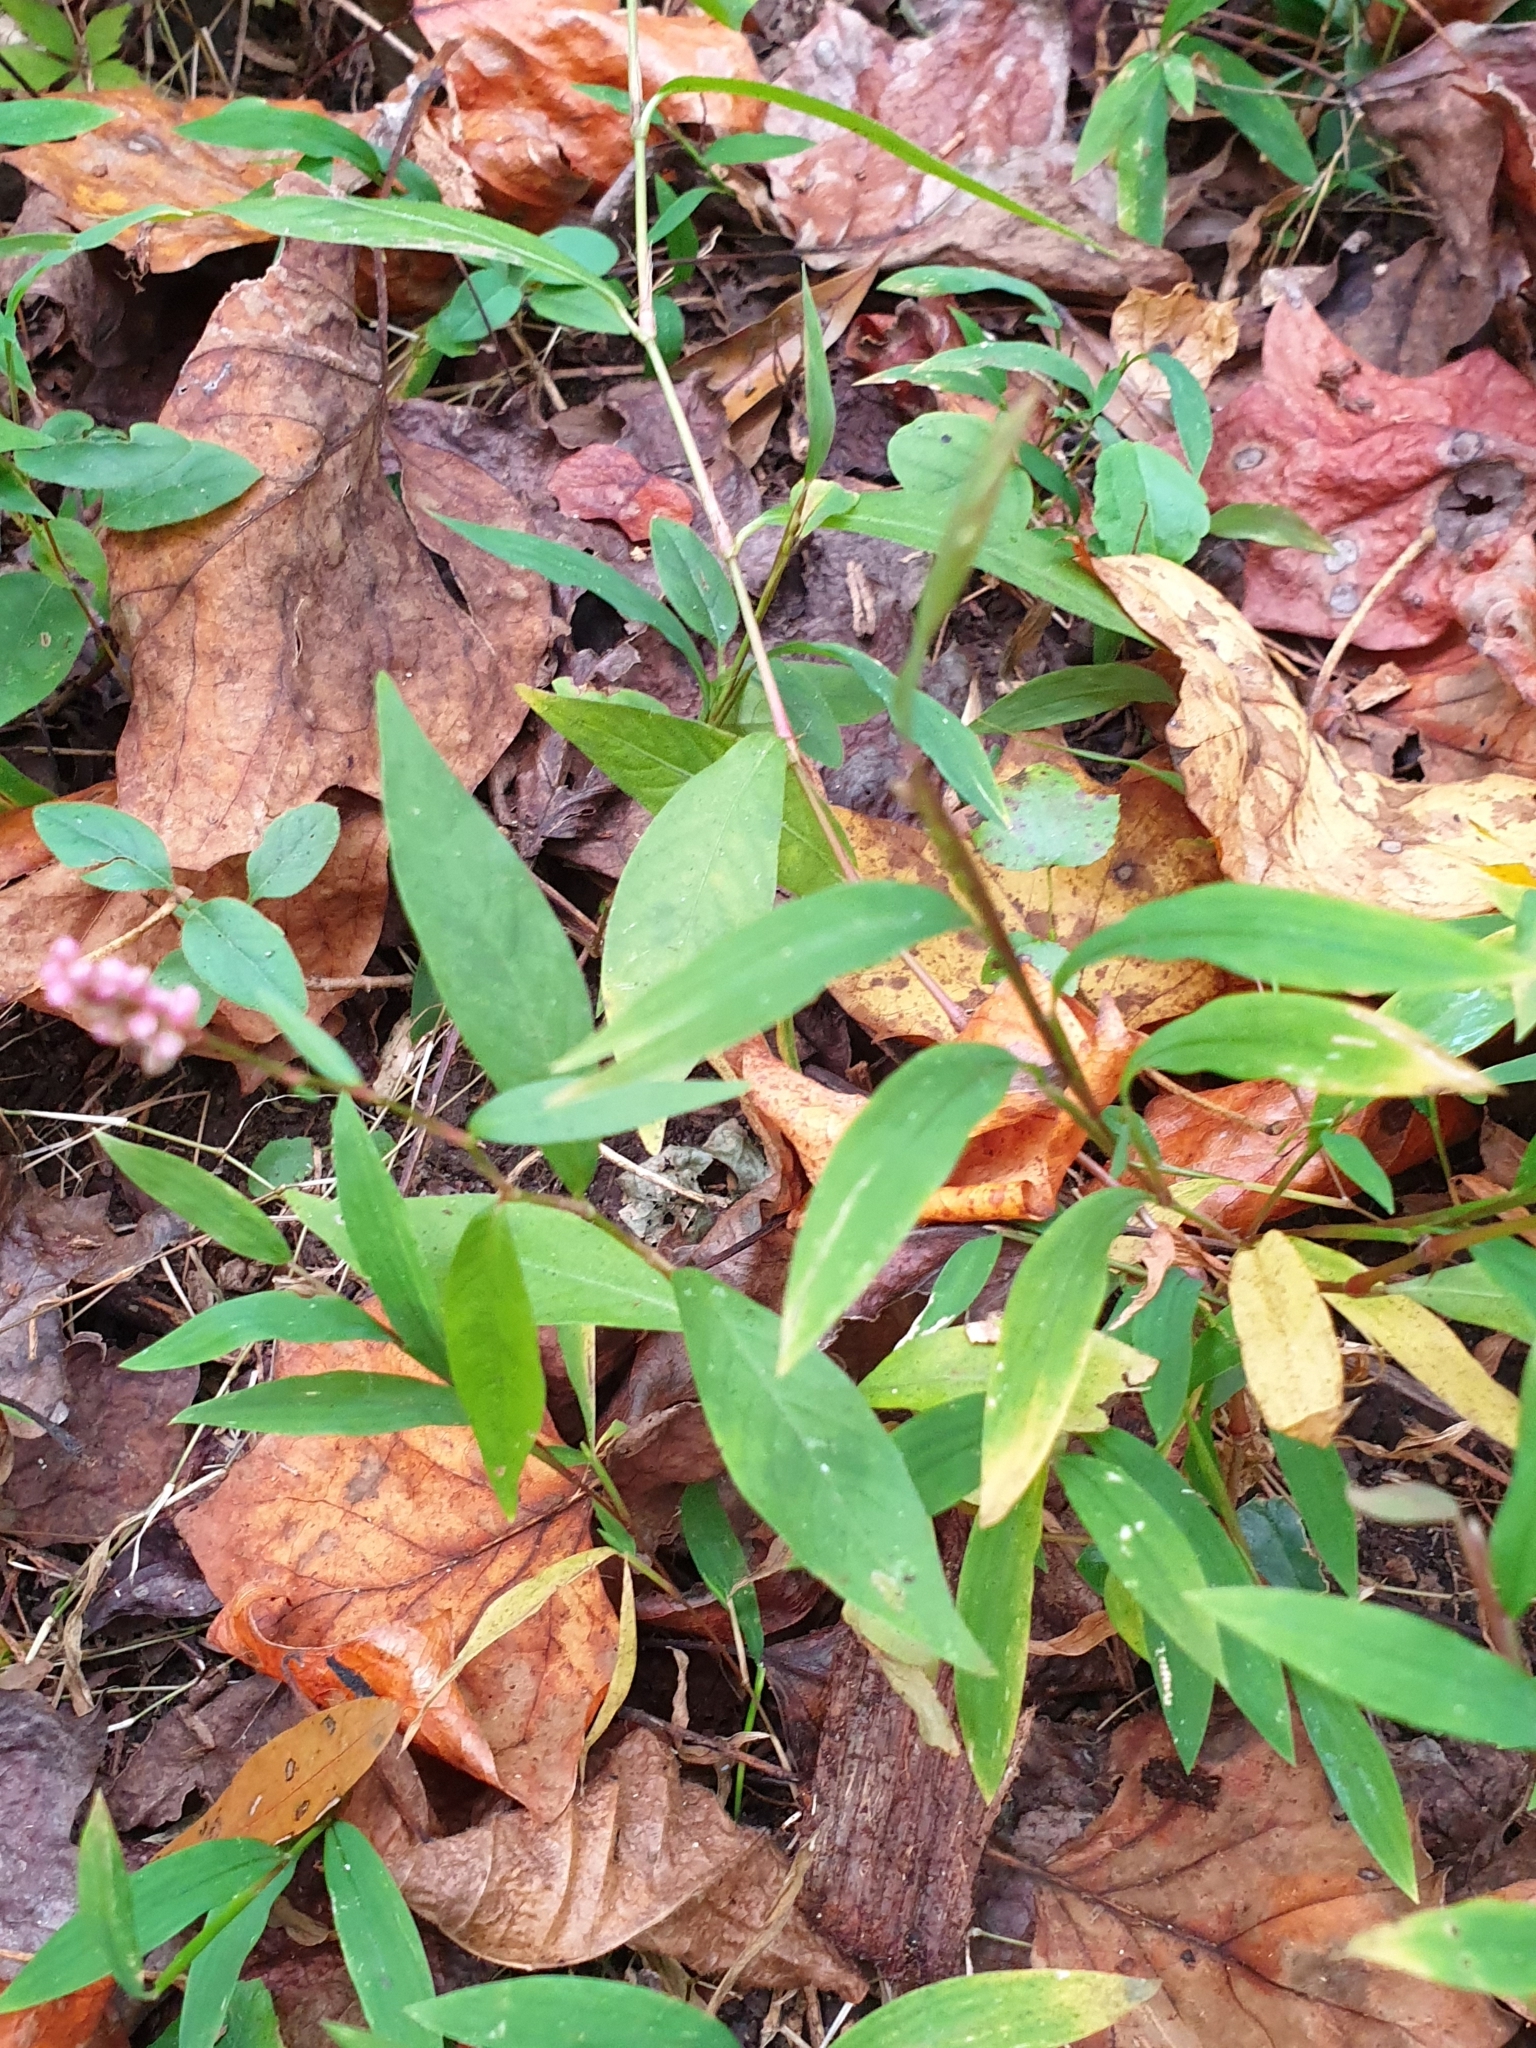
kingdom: Plantae
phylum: Tracheophyta
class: Liliopsida
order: Poales
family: Poaceae
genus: Microstegium
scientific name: Microstegium vimineum
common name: Japanese stiltgrass
